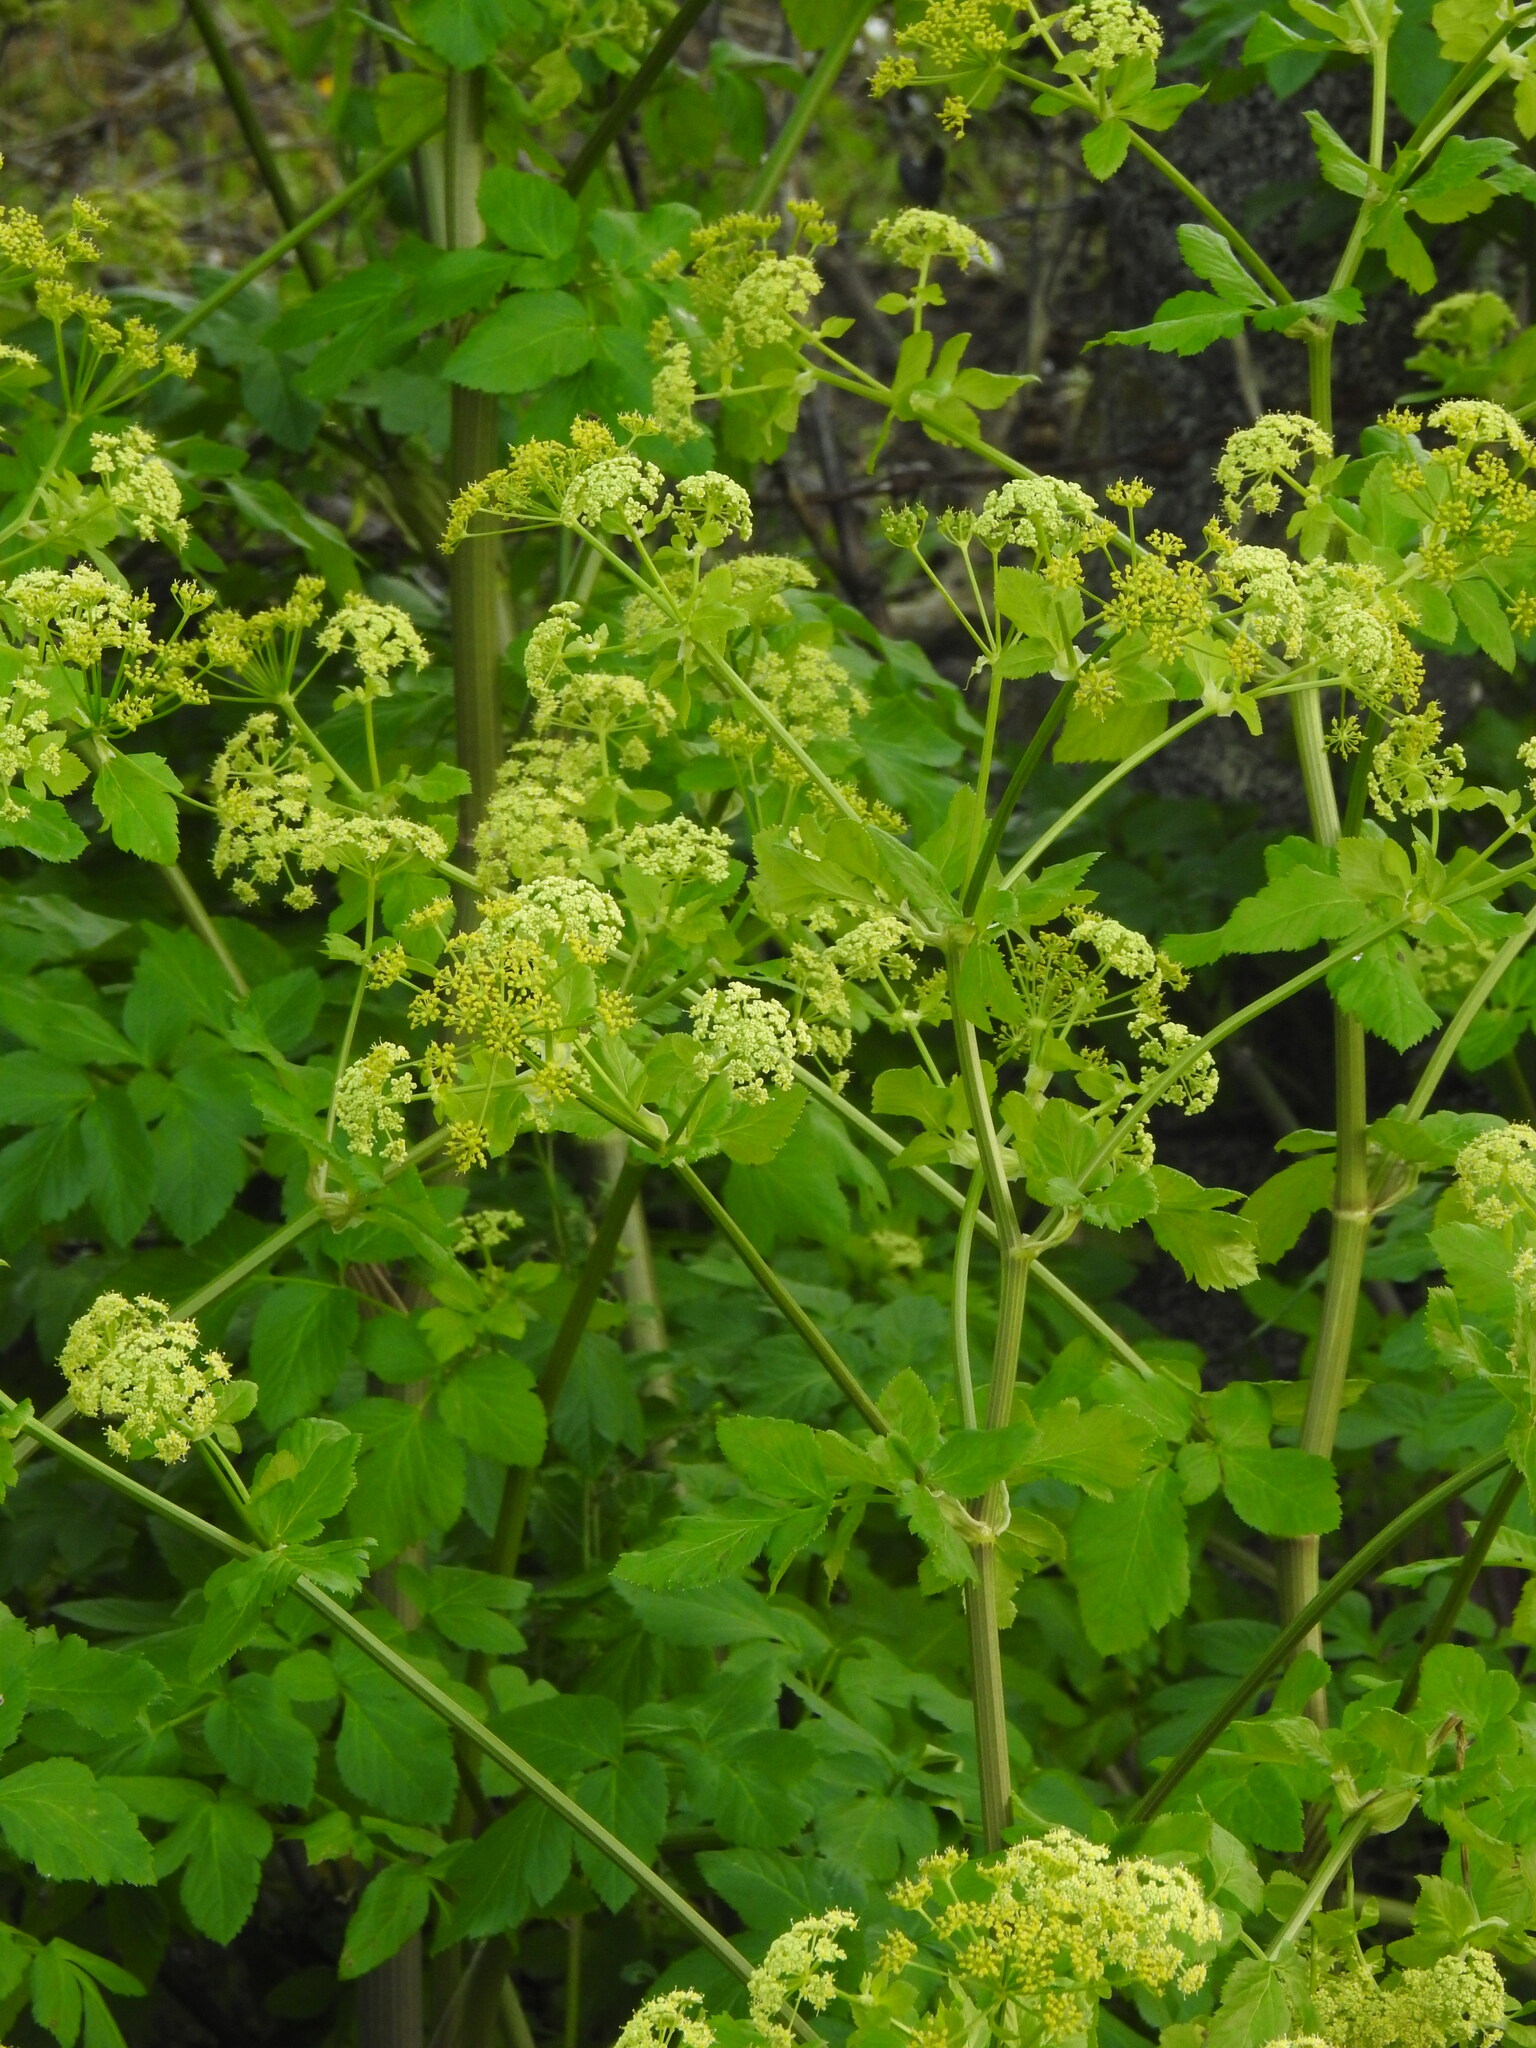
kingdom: Plantae
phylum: Tracheophyta
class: Magnoliopsida
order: Apiales
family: Apiaceae
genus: Smyrnium
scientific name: Smyrnium olusatrum
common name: Alexanders
